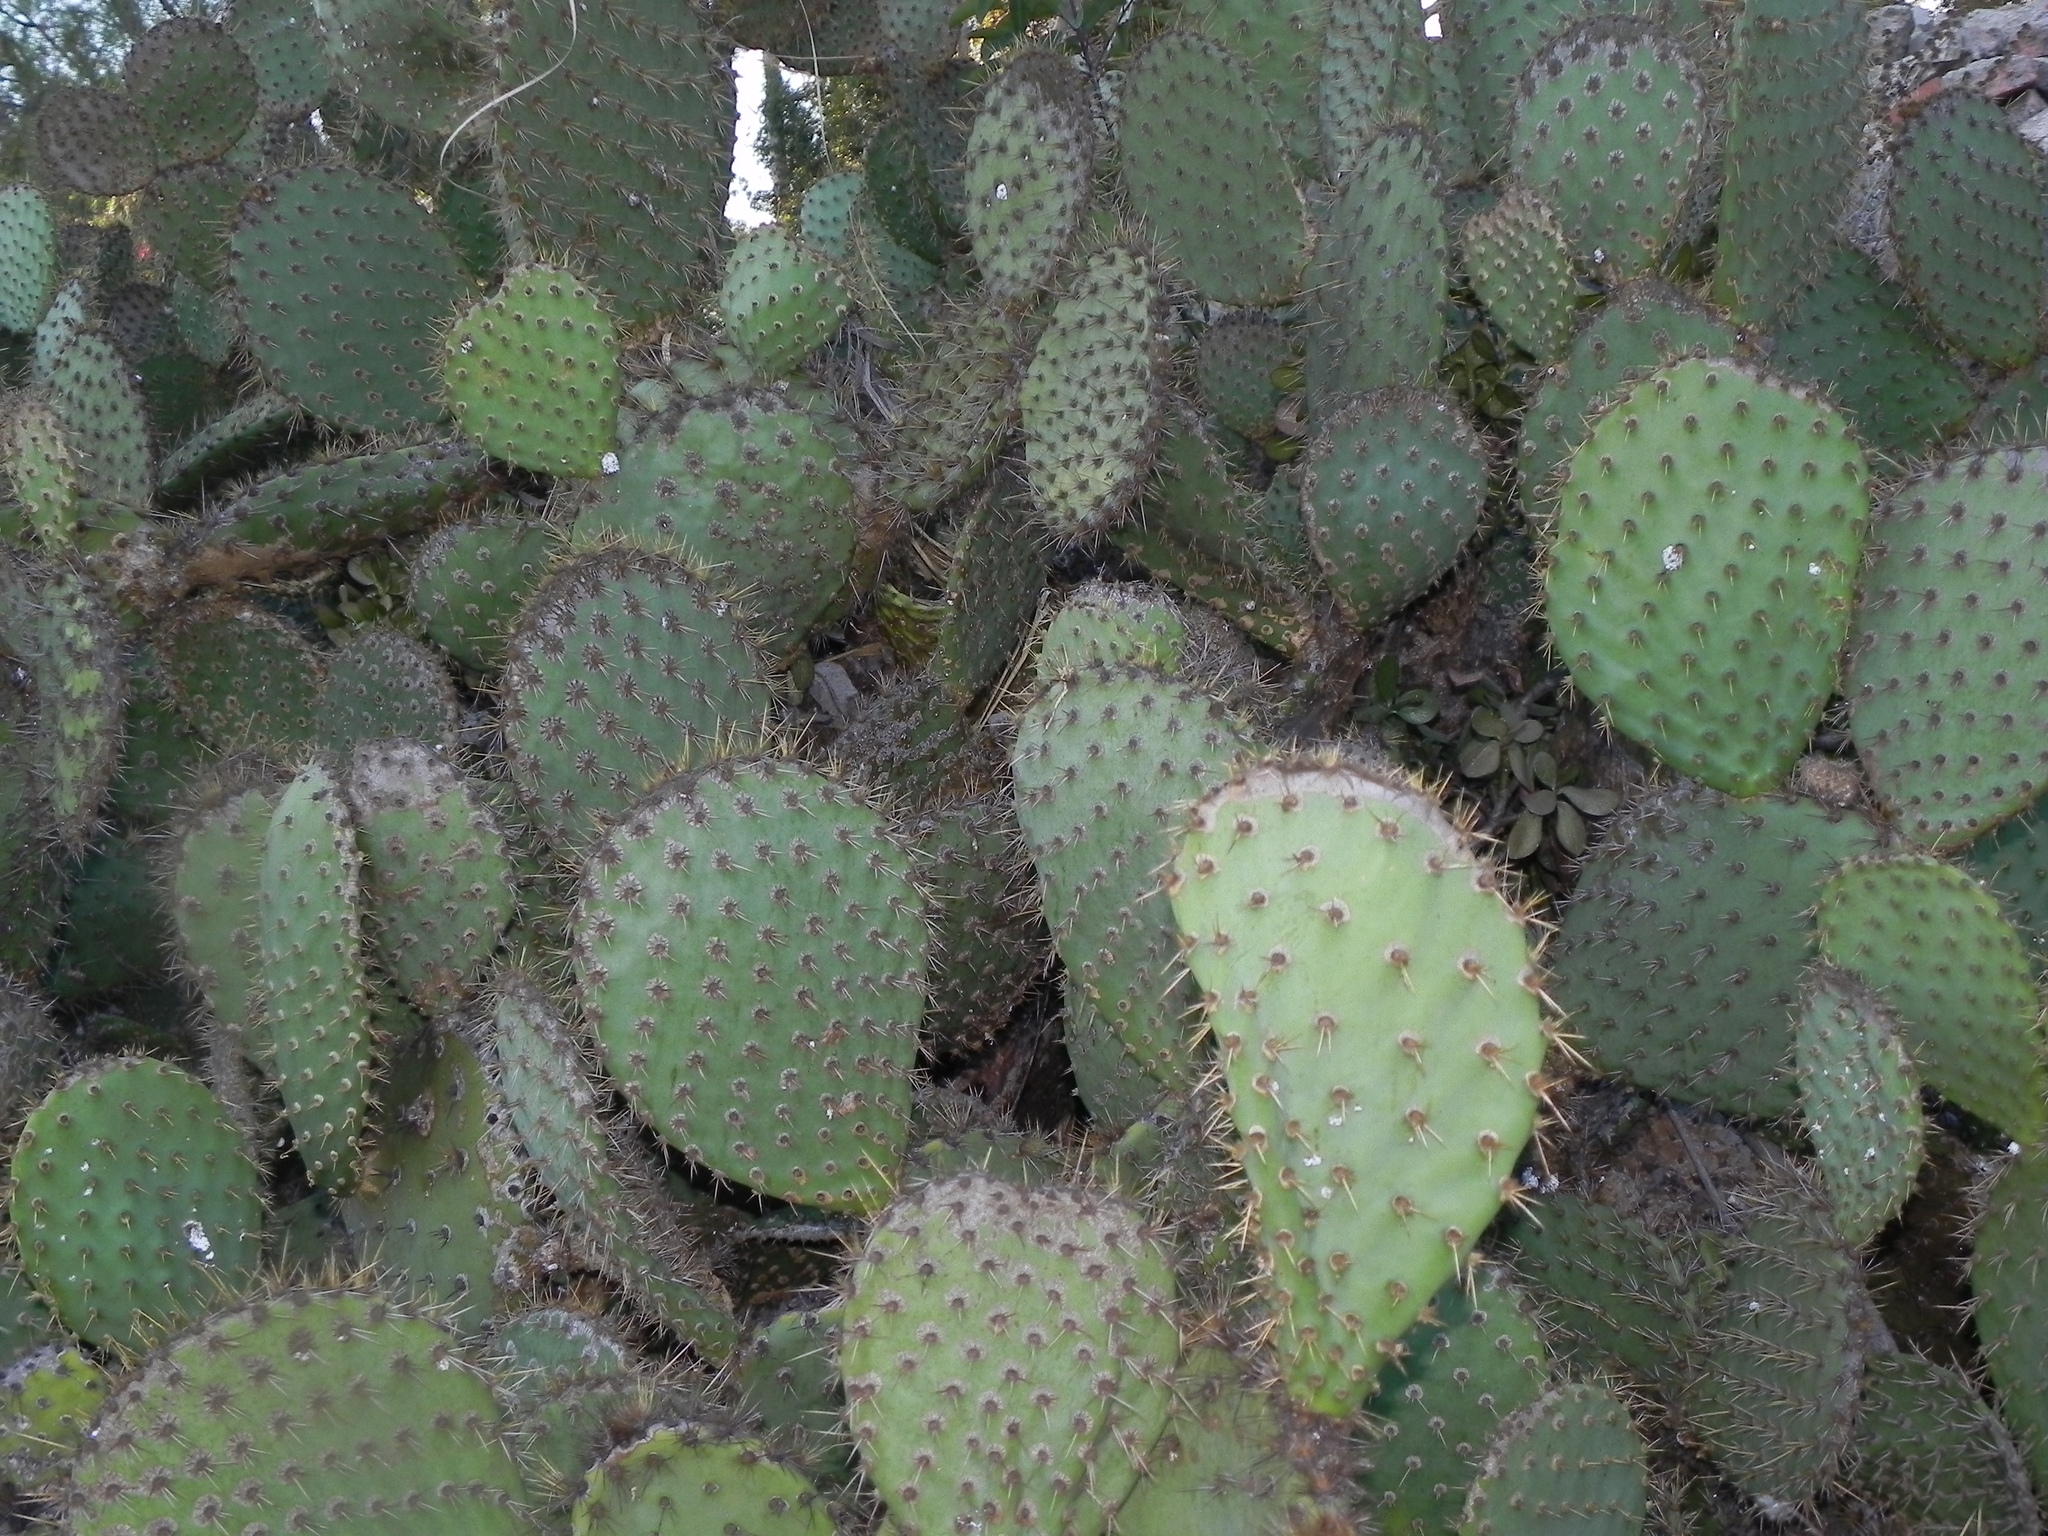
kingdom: Plantae
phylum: Tracheophyta
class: Magnoliopsida
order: Caryophyllales
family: Cactaceae
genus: Opuntia
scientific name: Opuntia oricola
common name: Chaparral prickly-pear
